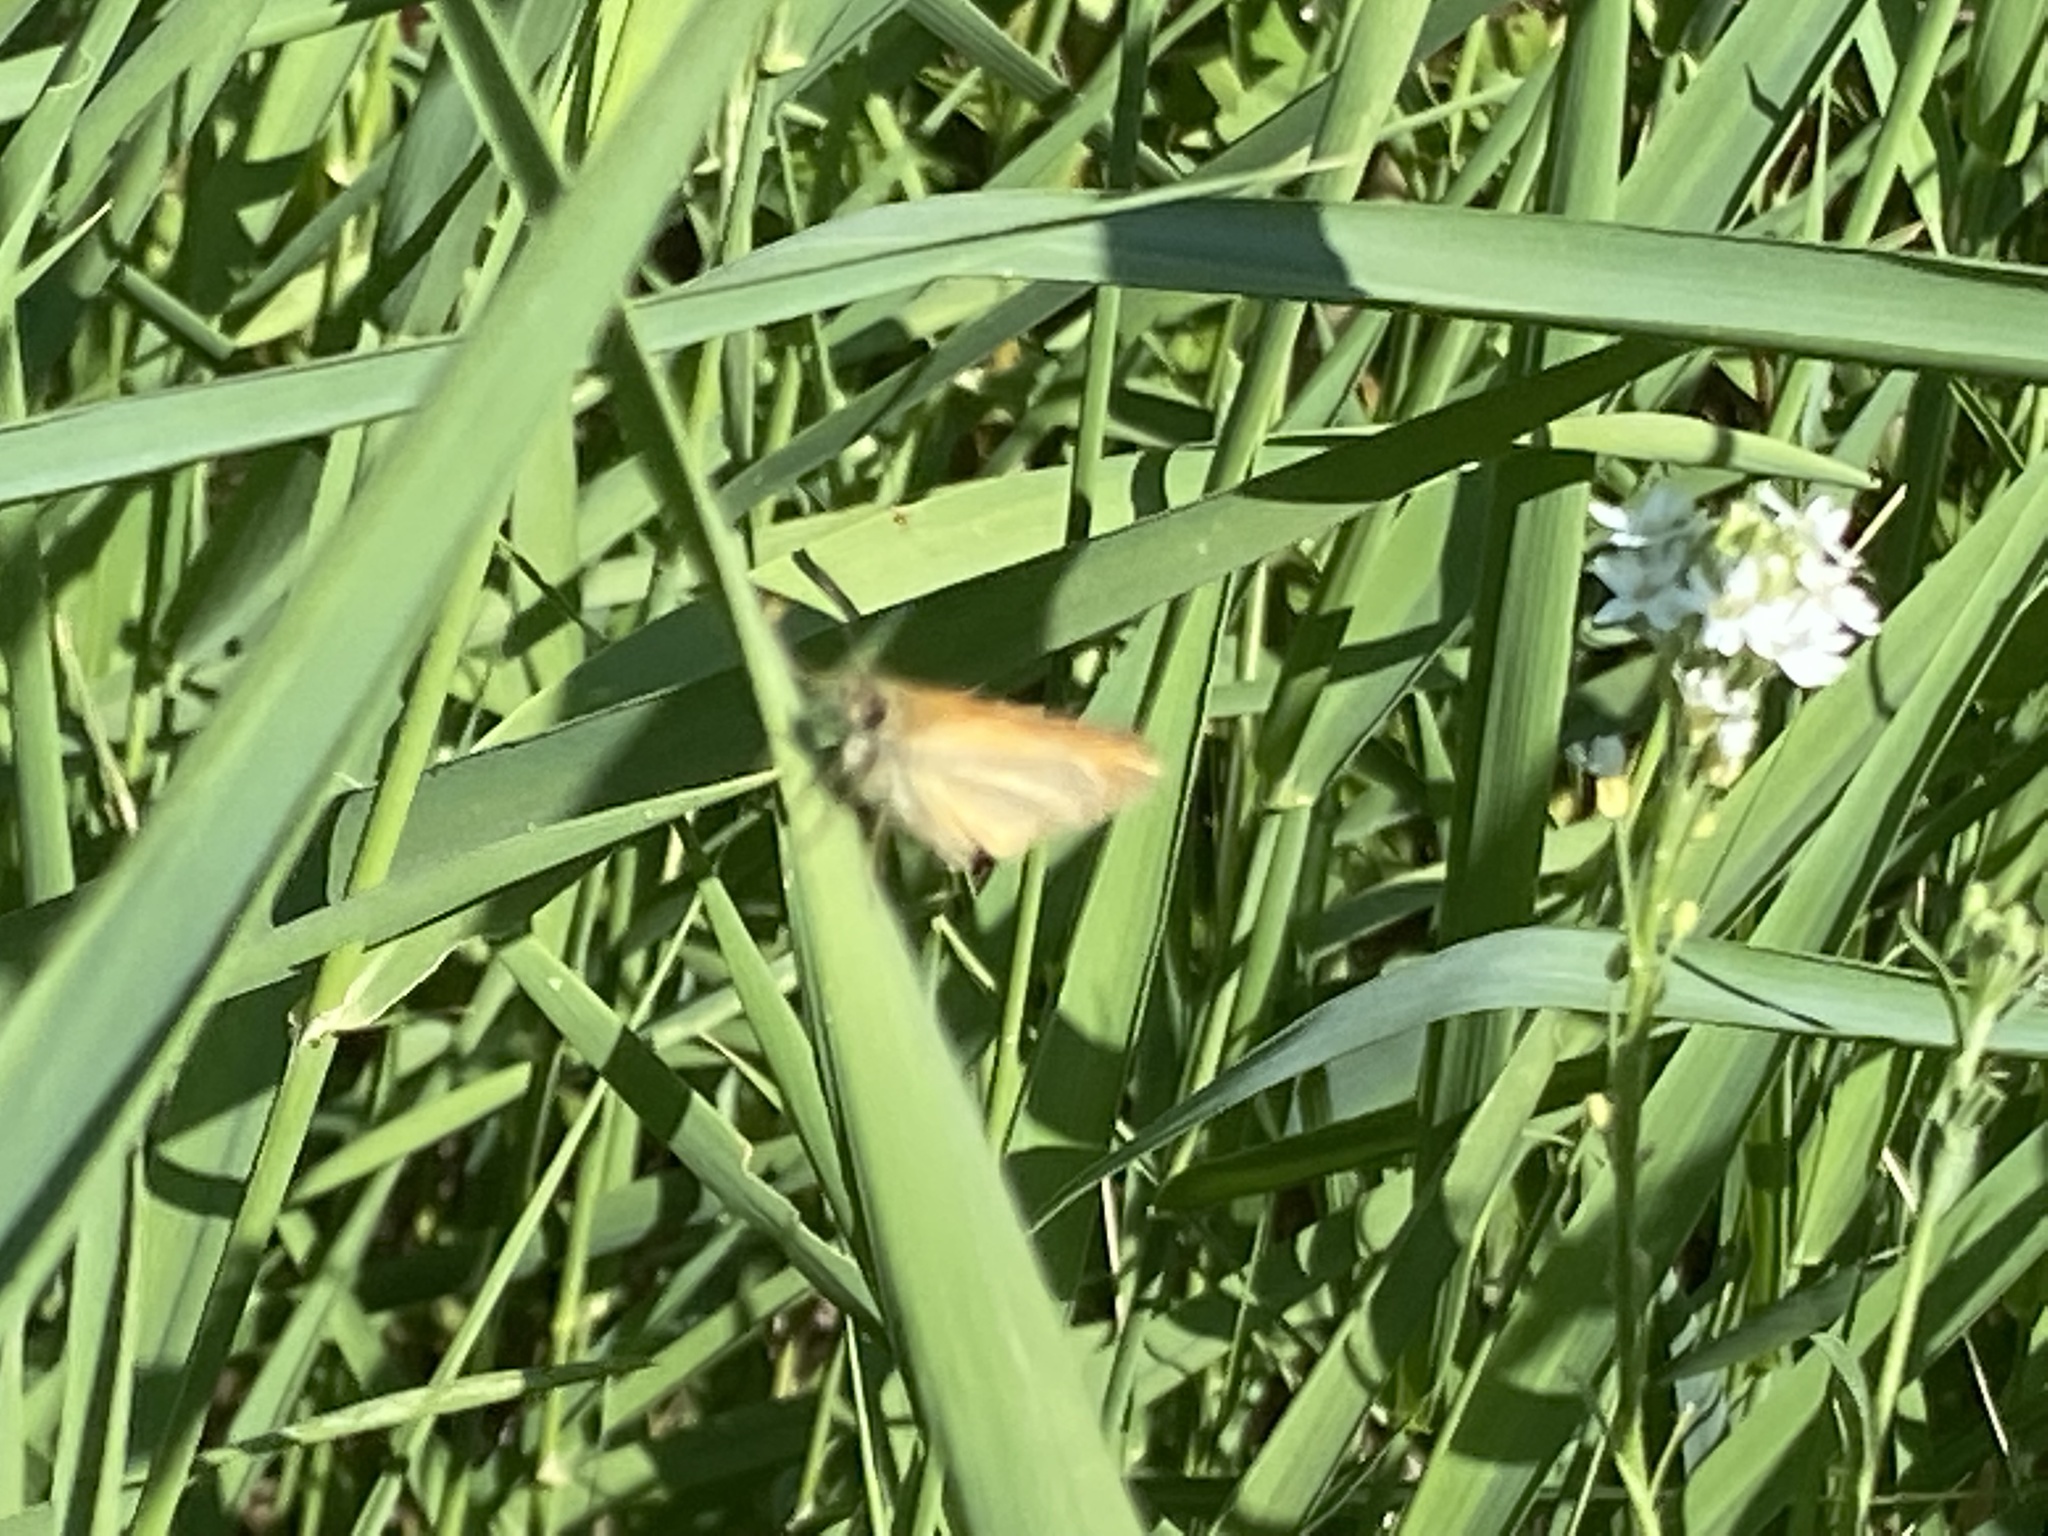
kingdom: Animalia
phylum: Arthropoda
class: Insecta
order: Lepidoptera
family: Hesperiidae
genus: Thymelicus
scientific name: Thymelicus lineola
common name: Essex skipper
